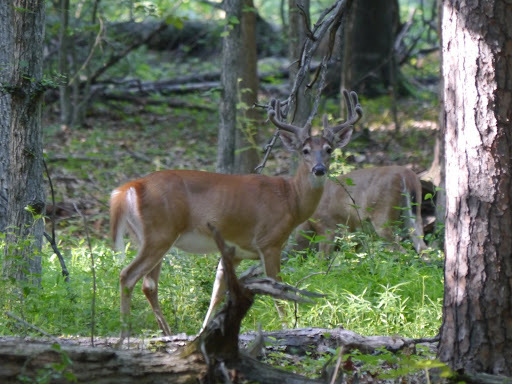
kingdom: Animalia
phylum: Chordata
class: Mammalia
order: Artiodactyla
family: Cervidae
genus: Odocoileus
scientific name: Odocoileus virginianus
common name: White-tailed deer
